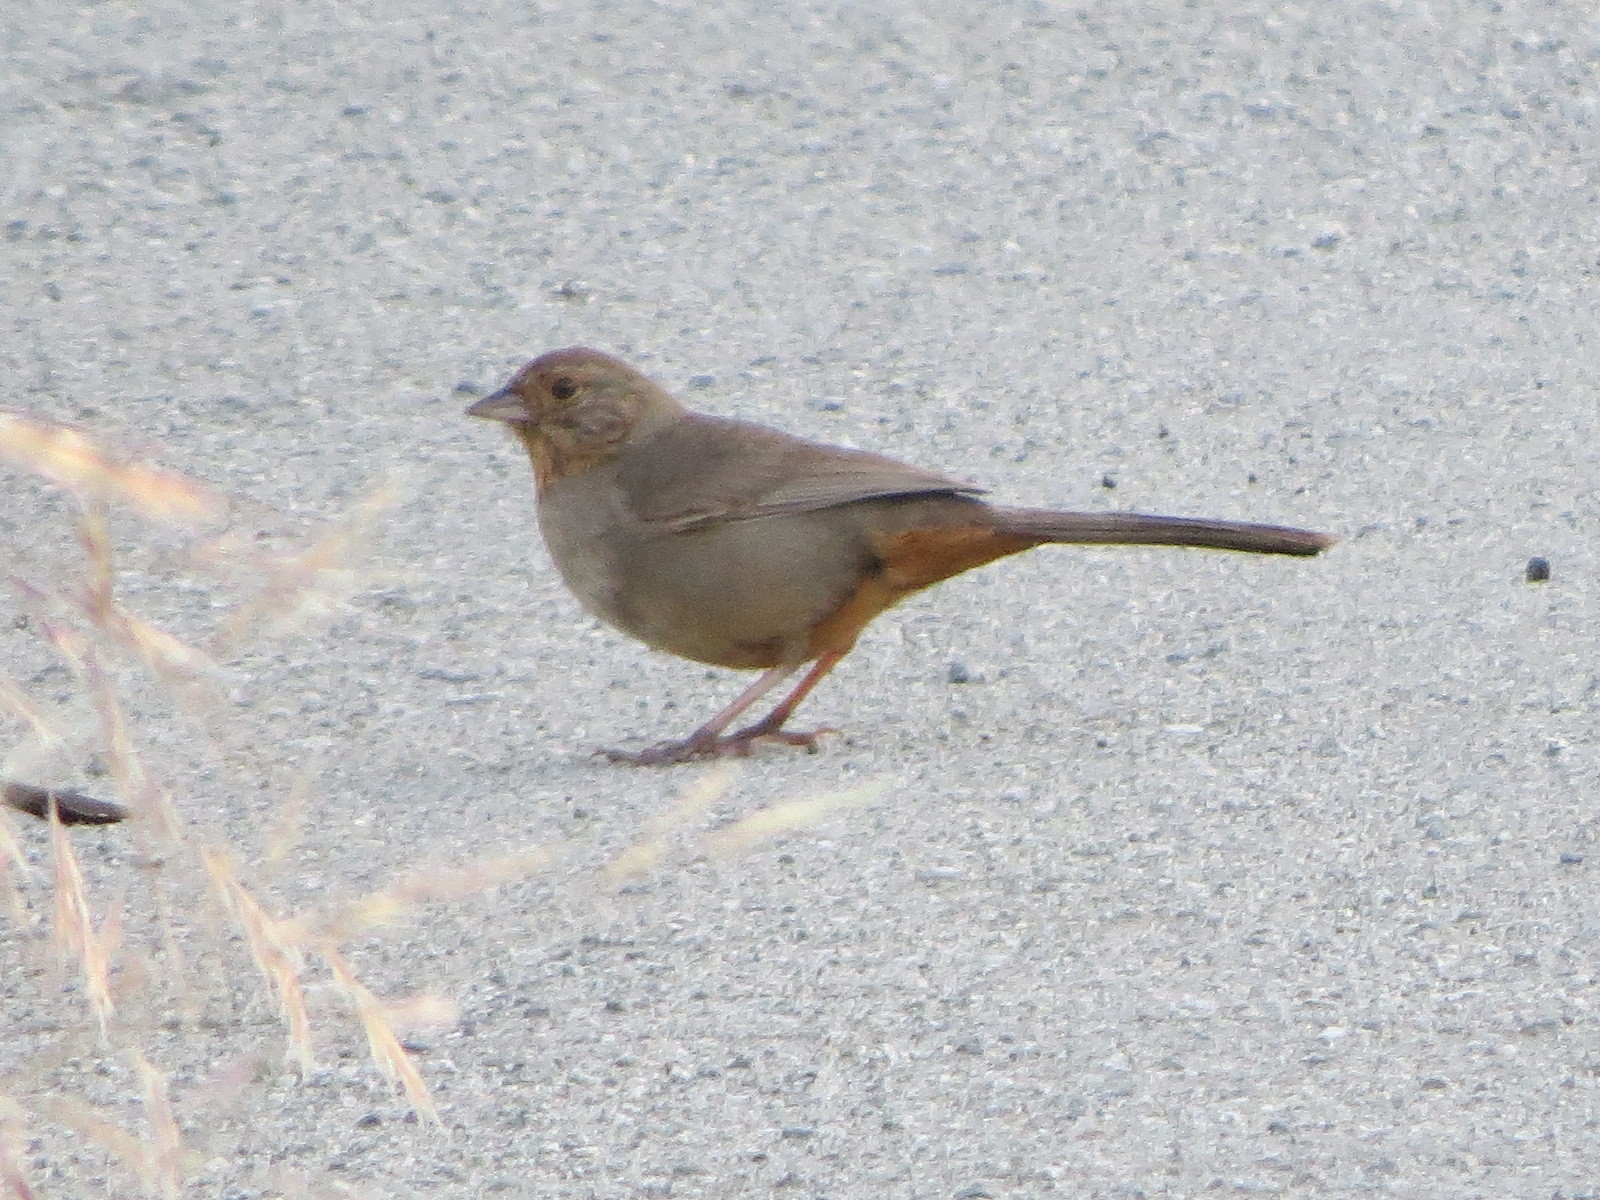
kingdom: Animalia
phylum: Chordata
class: Aves
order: Passeriformes
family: Passerellidae
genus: Melozone
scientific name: Melozone crissalis
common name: California towhee
